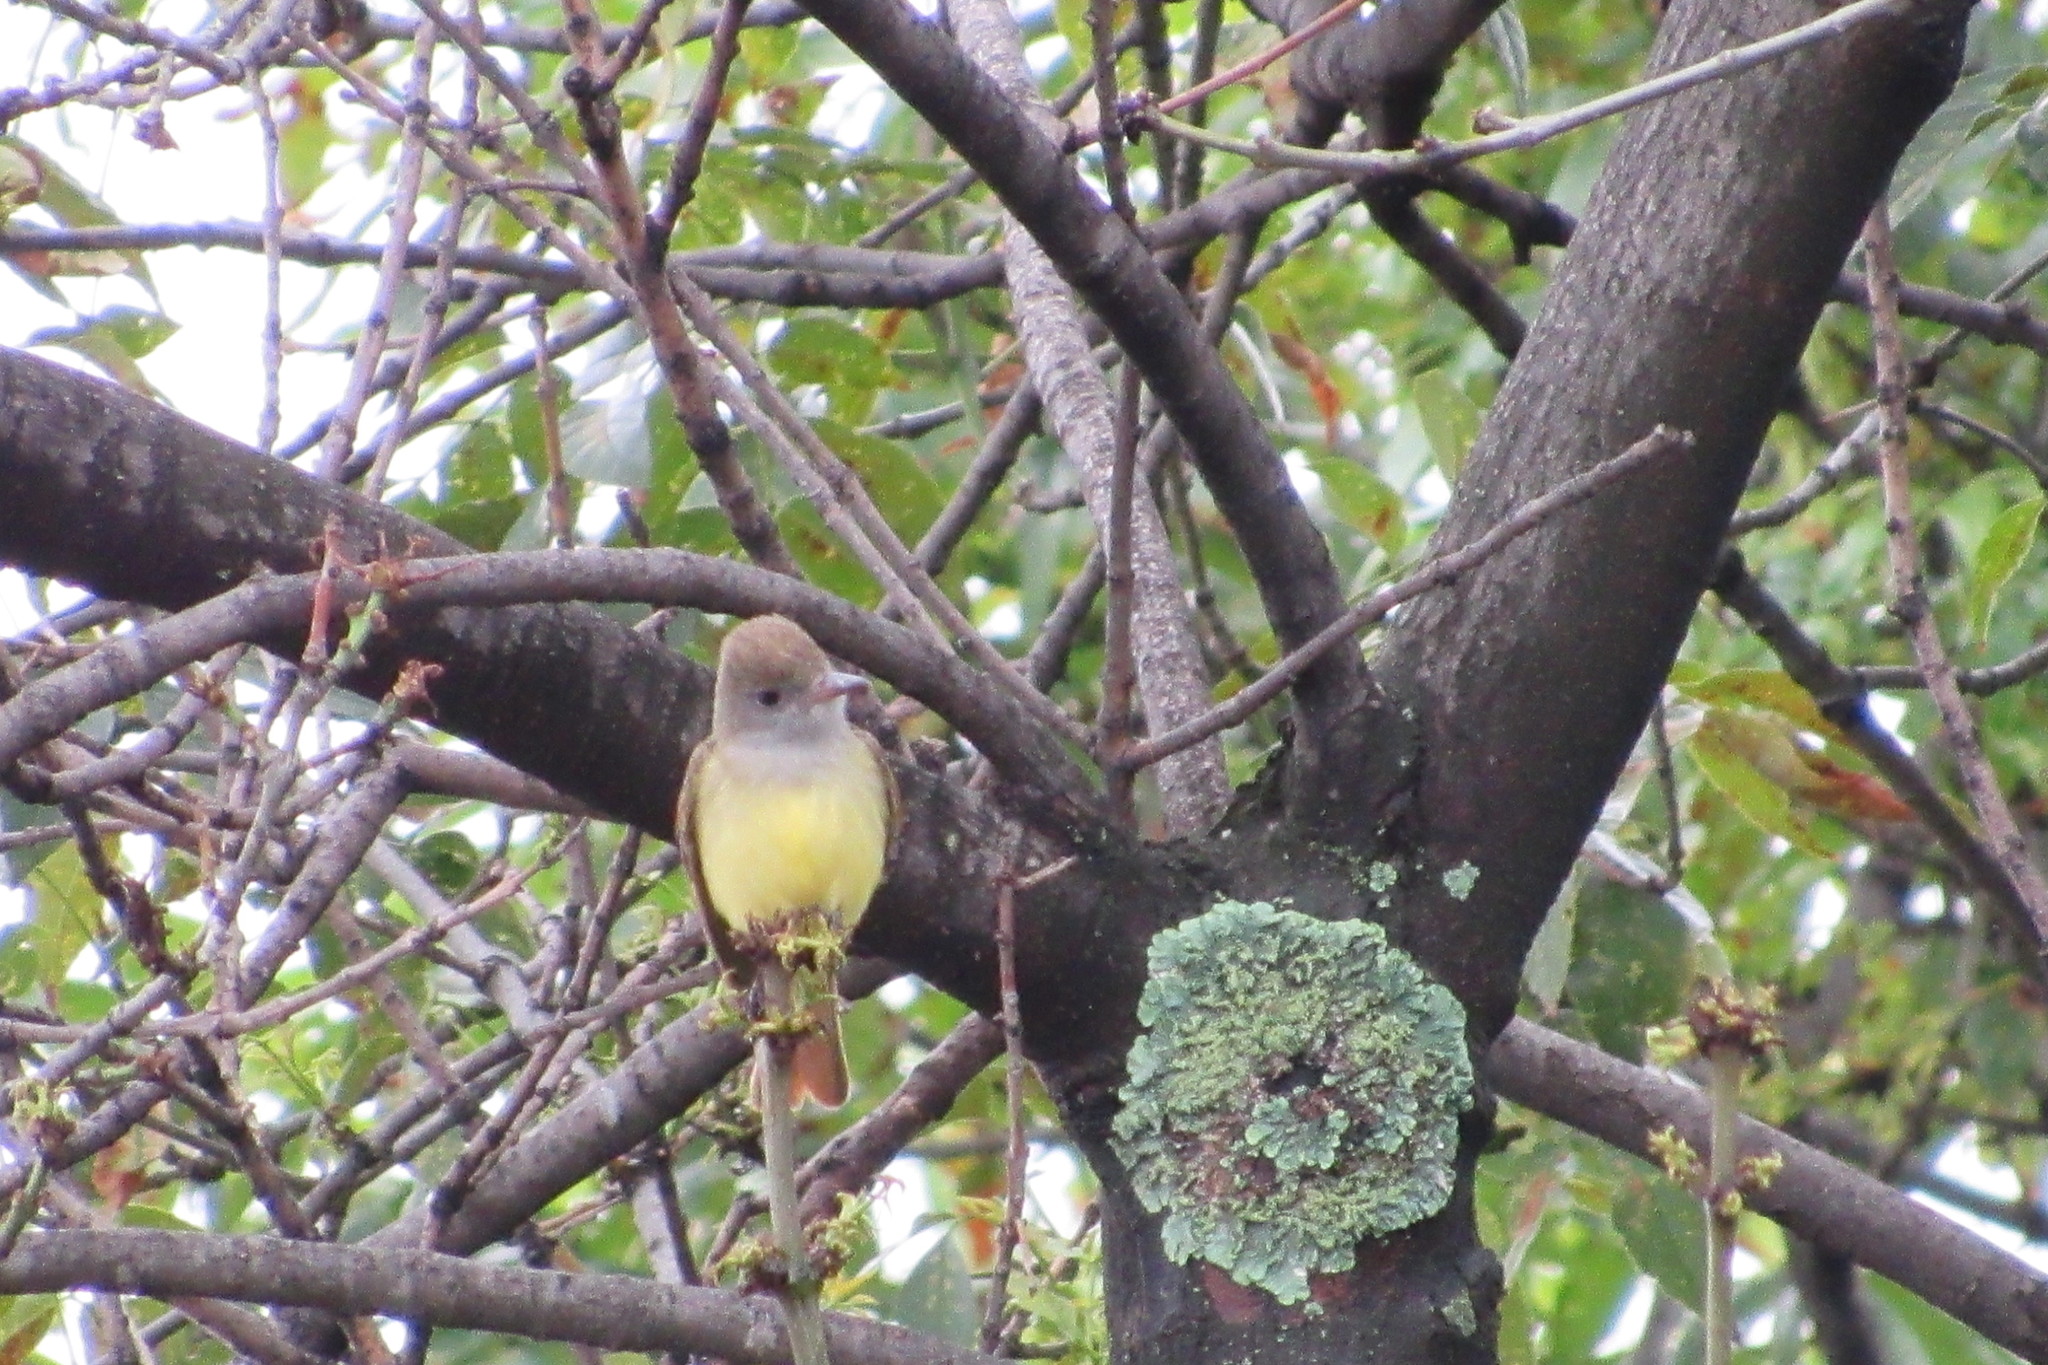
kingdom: Animalia
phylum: Chordata
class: Aves
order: Passeriformes
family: Tyrannidae
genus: Myiarchus
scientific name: Myiarchus crinitus
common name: Great crested flycatcher
